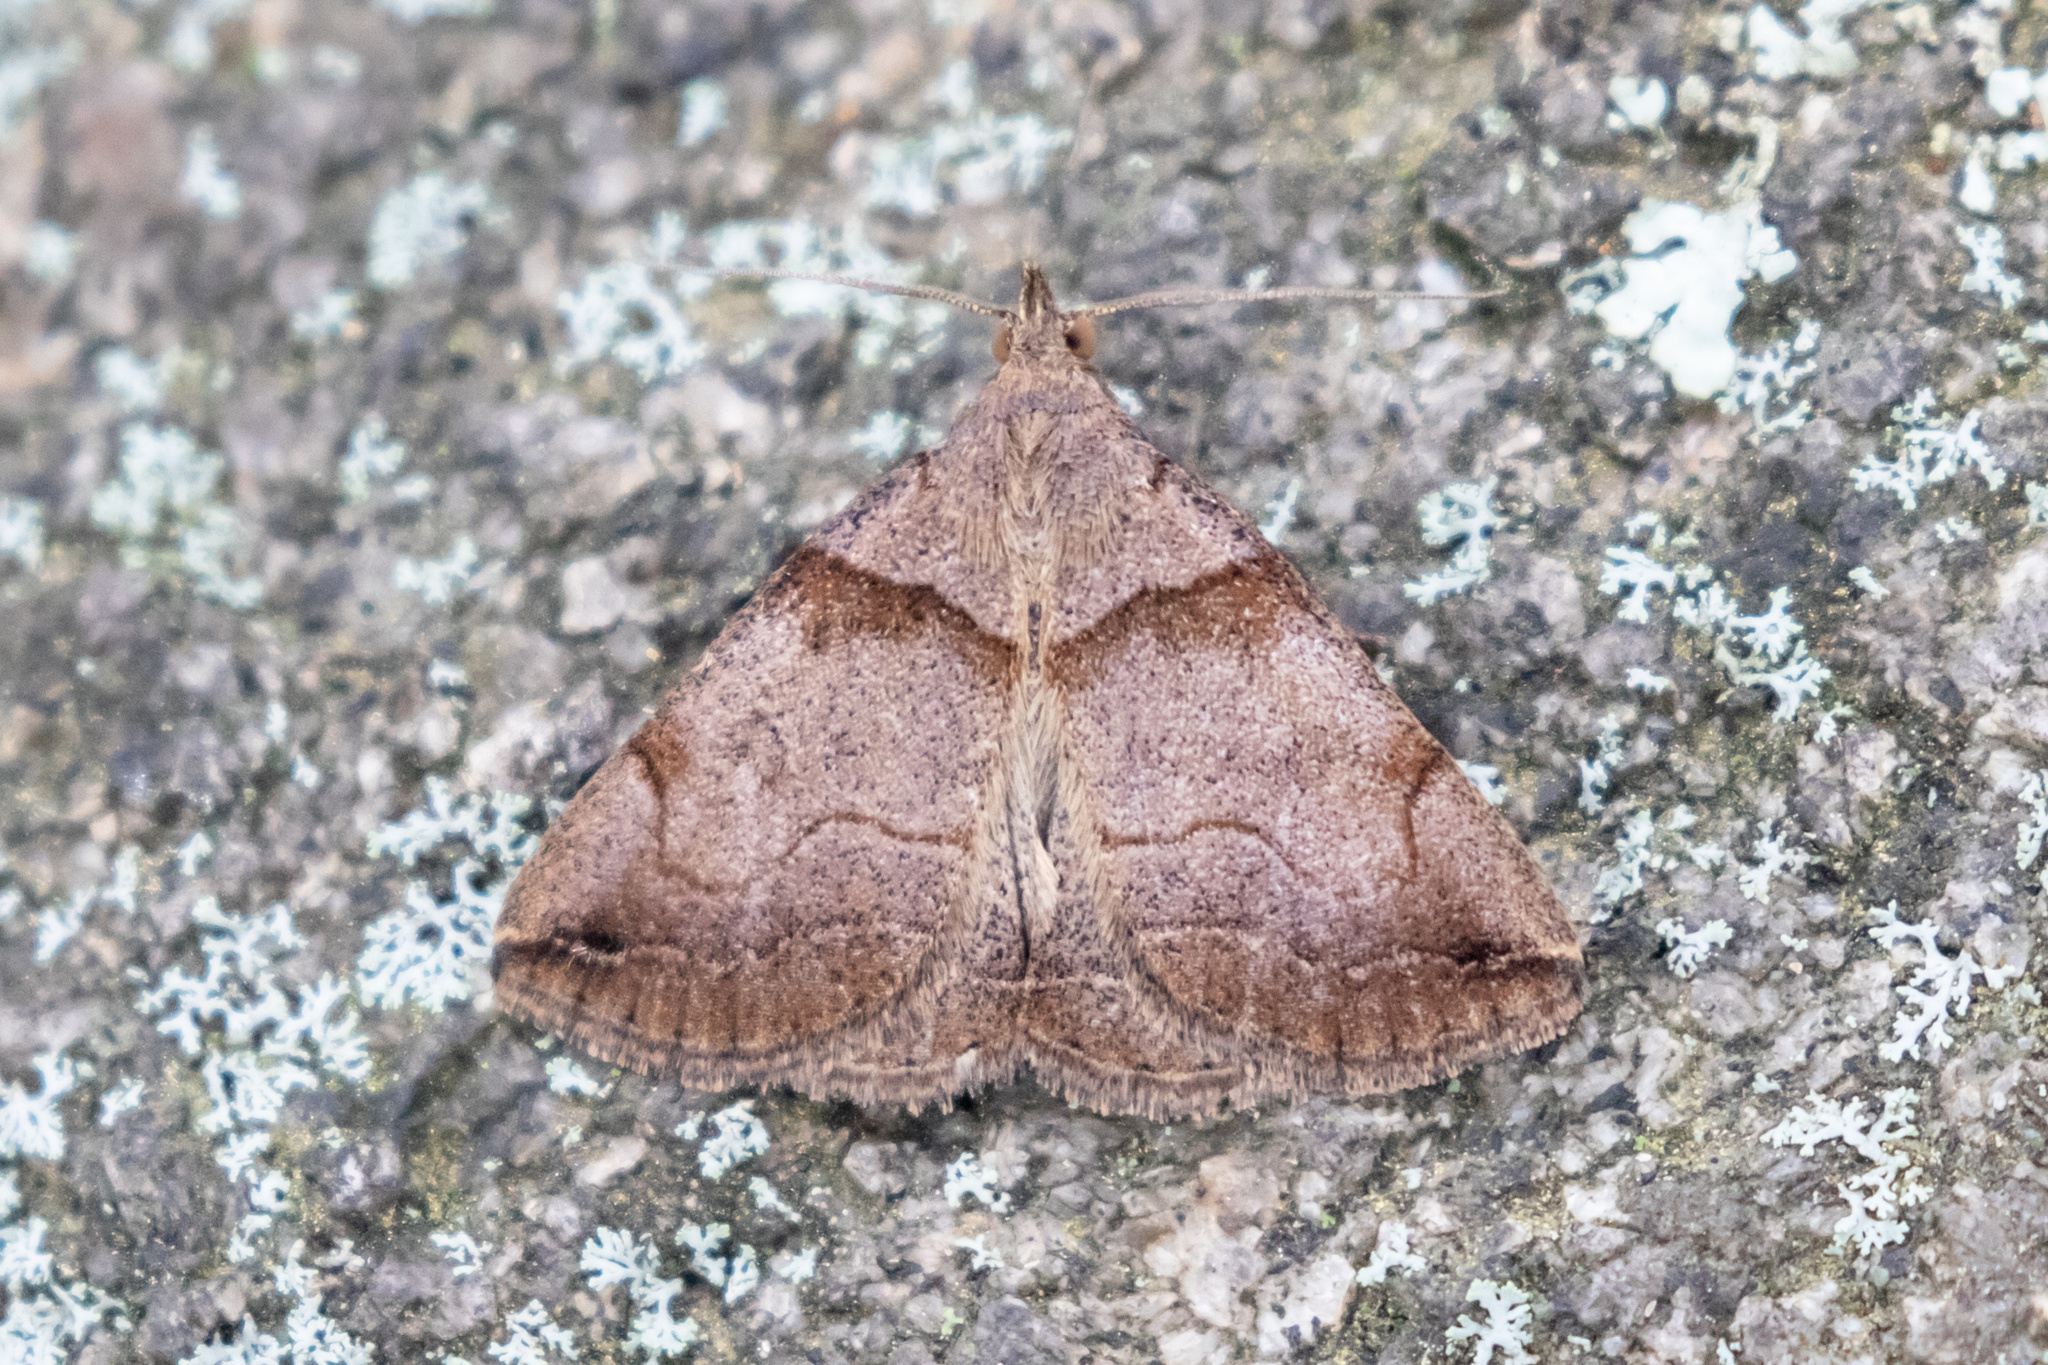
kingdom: Animalia
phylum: Arthropoda
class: Insecta
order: Lepidoptera
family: Erebidae
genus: Zanclognatha
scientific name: Zanclognatha laevigata
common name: Variable fan-foot
